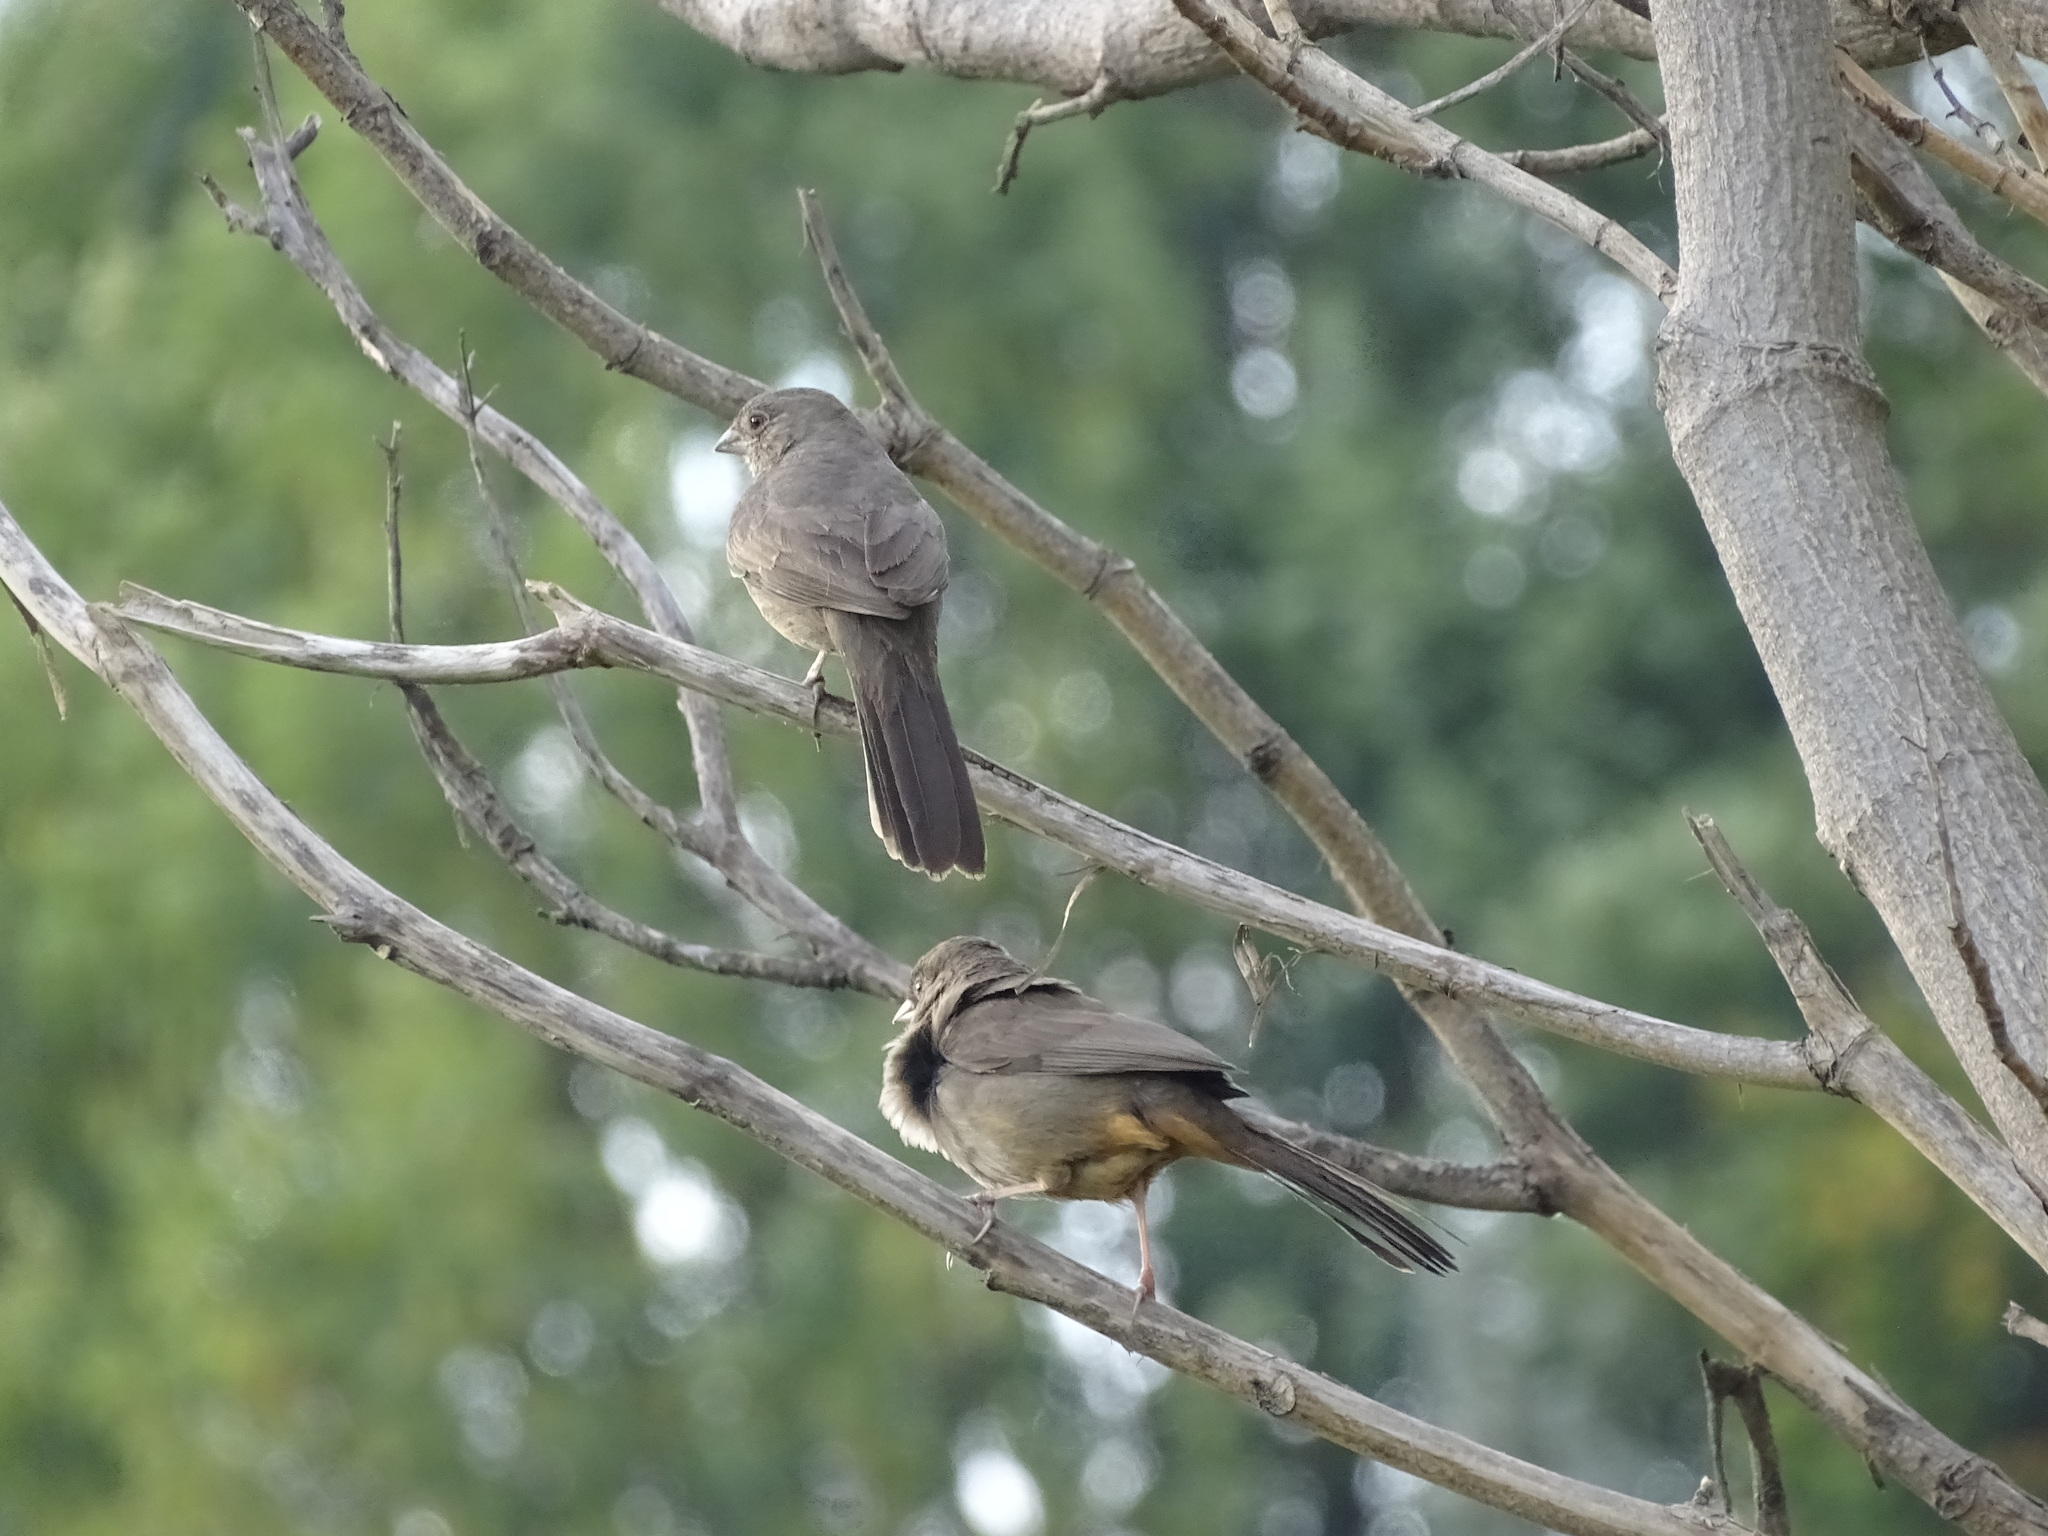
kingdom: Animalia
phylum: Chordata
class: Aves
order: Passeriformes
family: Passerellidae
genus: Melozone
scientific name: Melozone fusca
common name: Canyon towhee
